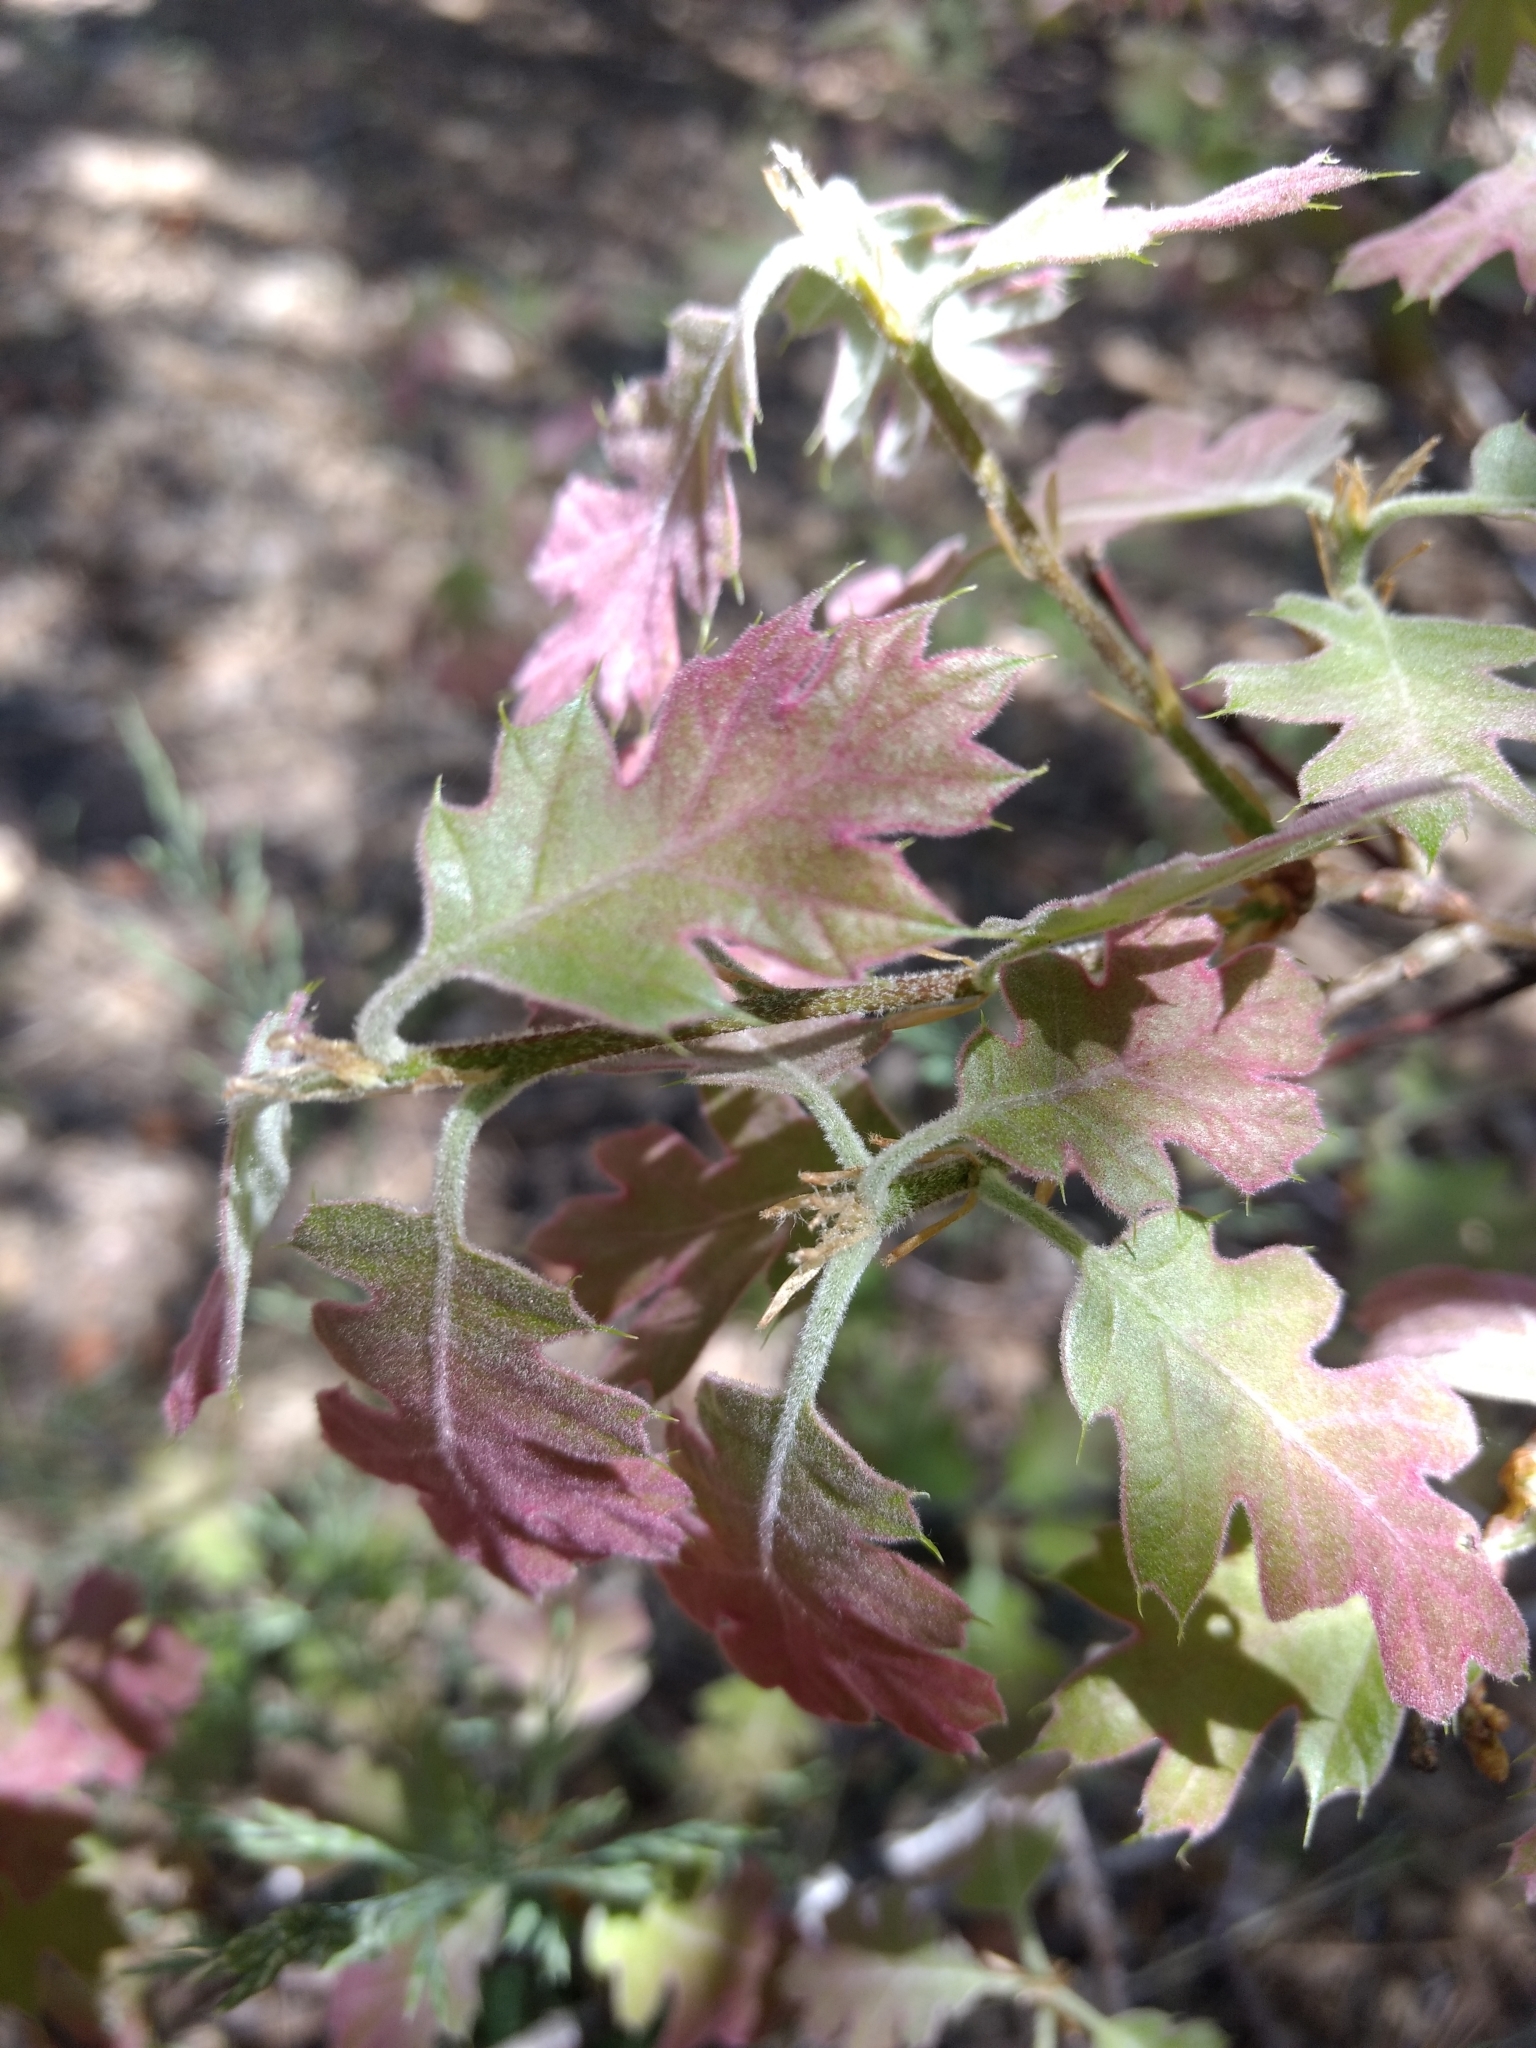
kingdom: Plantae
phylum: Tracheophyta
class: Magnoliopsida
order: Fagales
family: Fagaceae
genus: Quercus
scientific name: Quercus kelloggii
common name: California black oak
